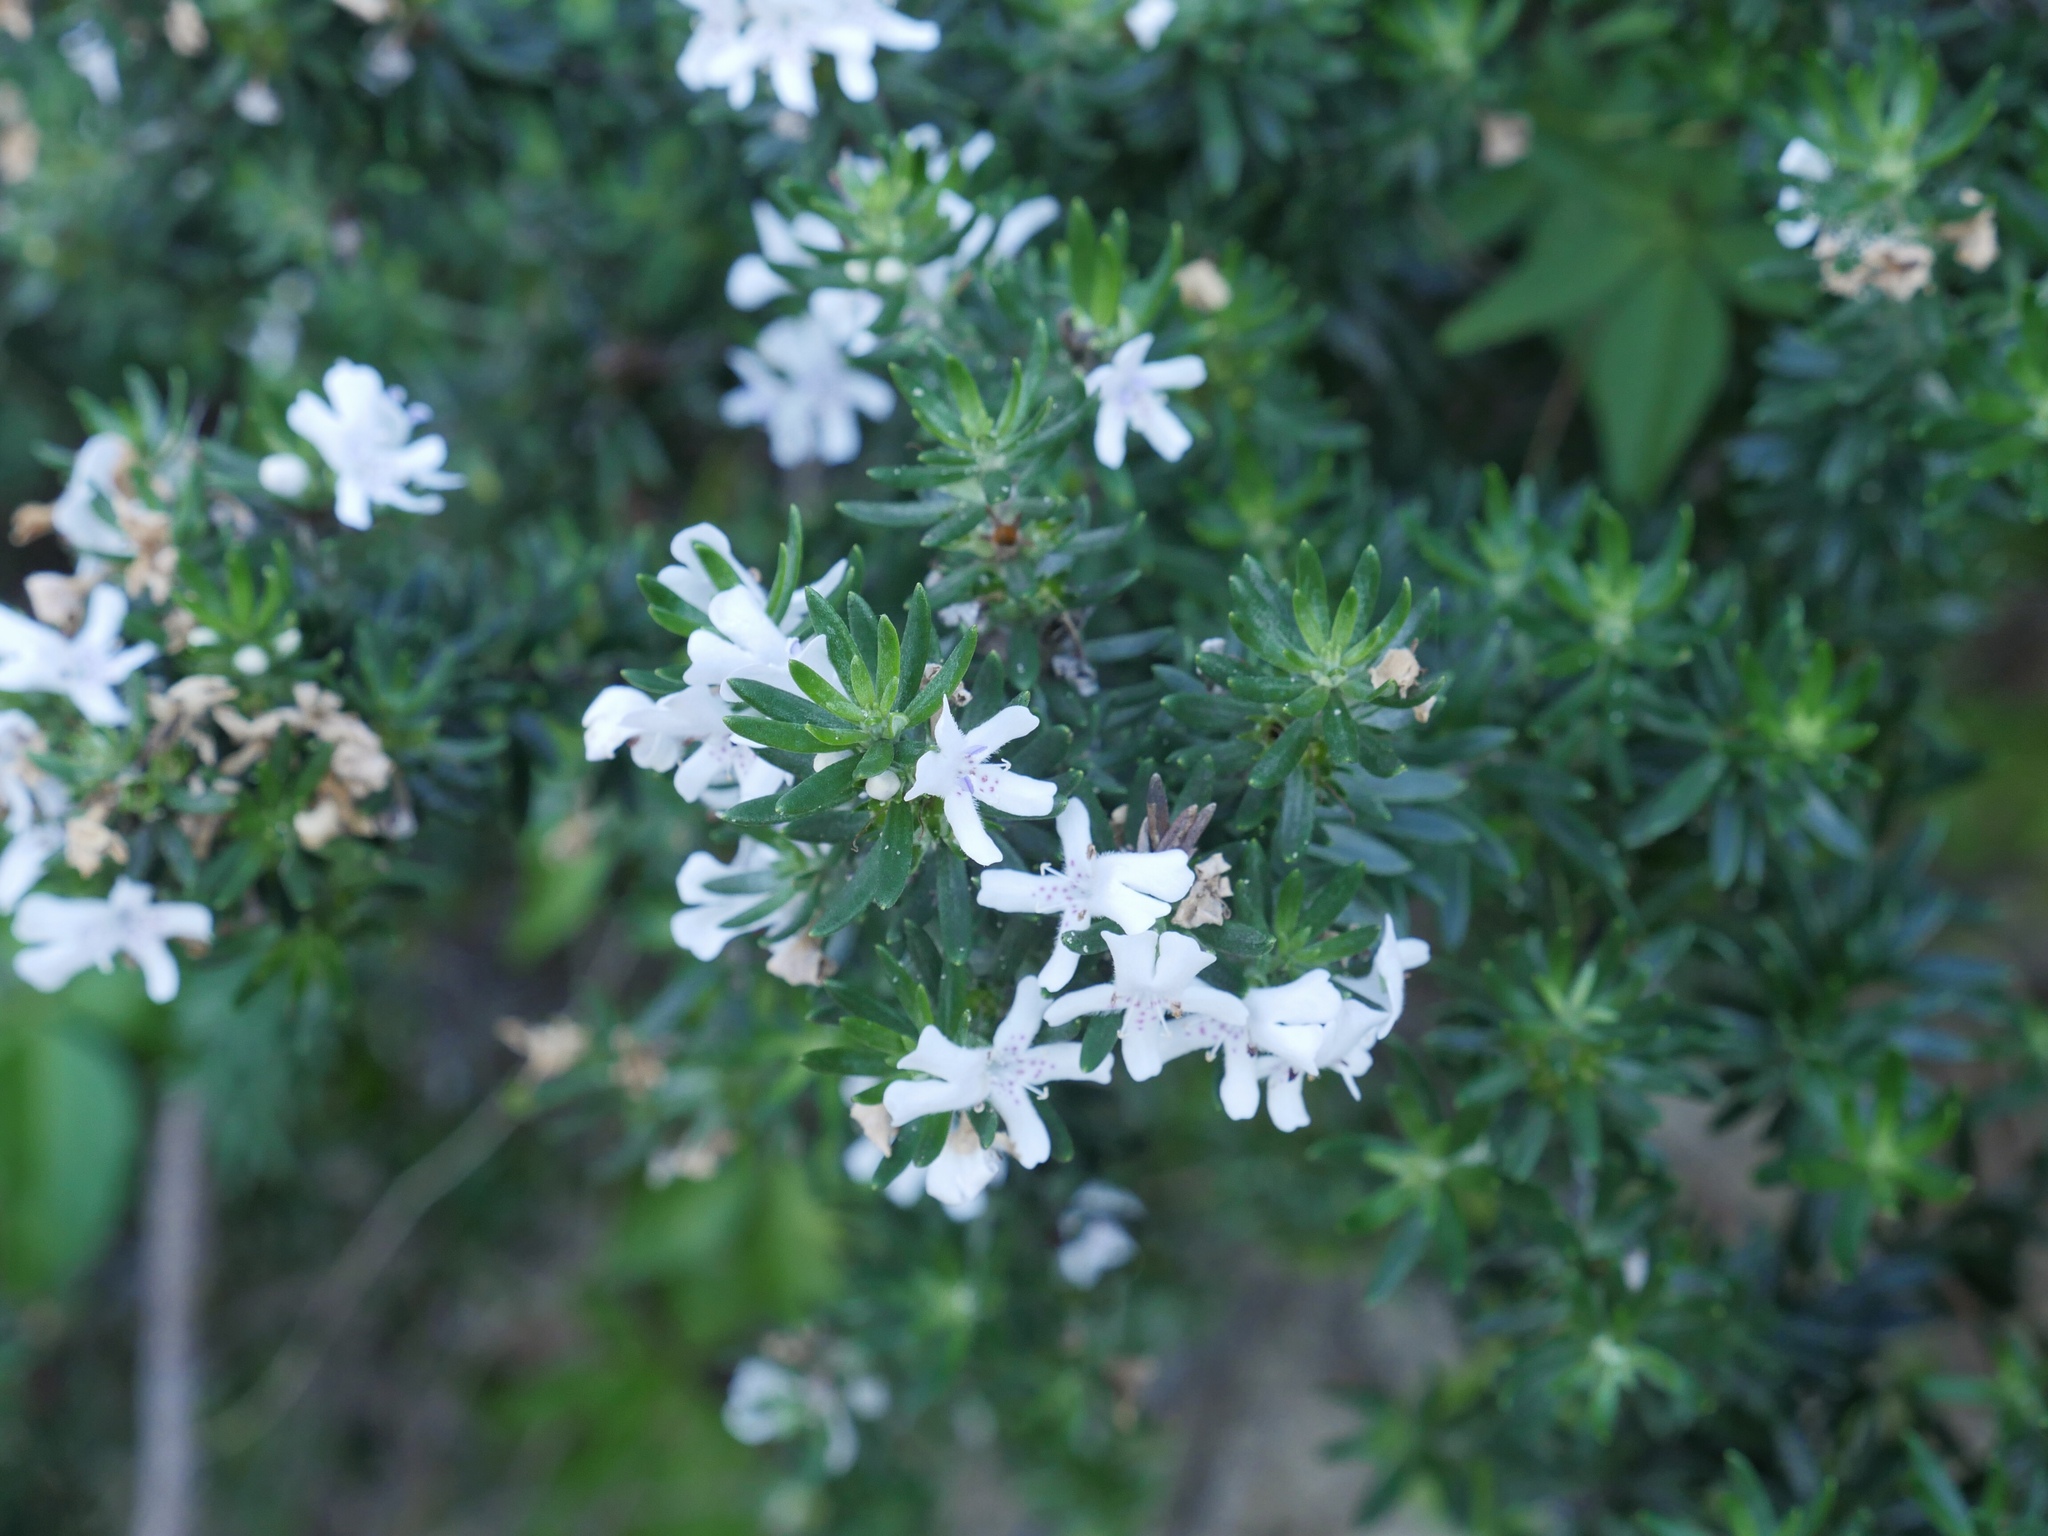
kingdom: Plantae
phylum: Tracheophyta
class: Magnoliopsida
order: Lamiales
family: Lamiaceae
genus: Westringia
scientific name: Westringia fruticosa
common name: Coastal-rosemary
